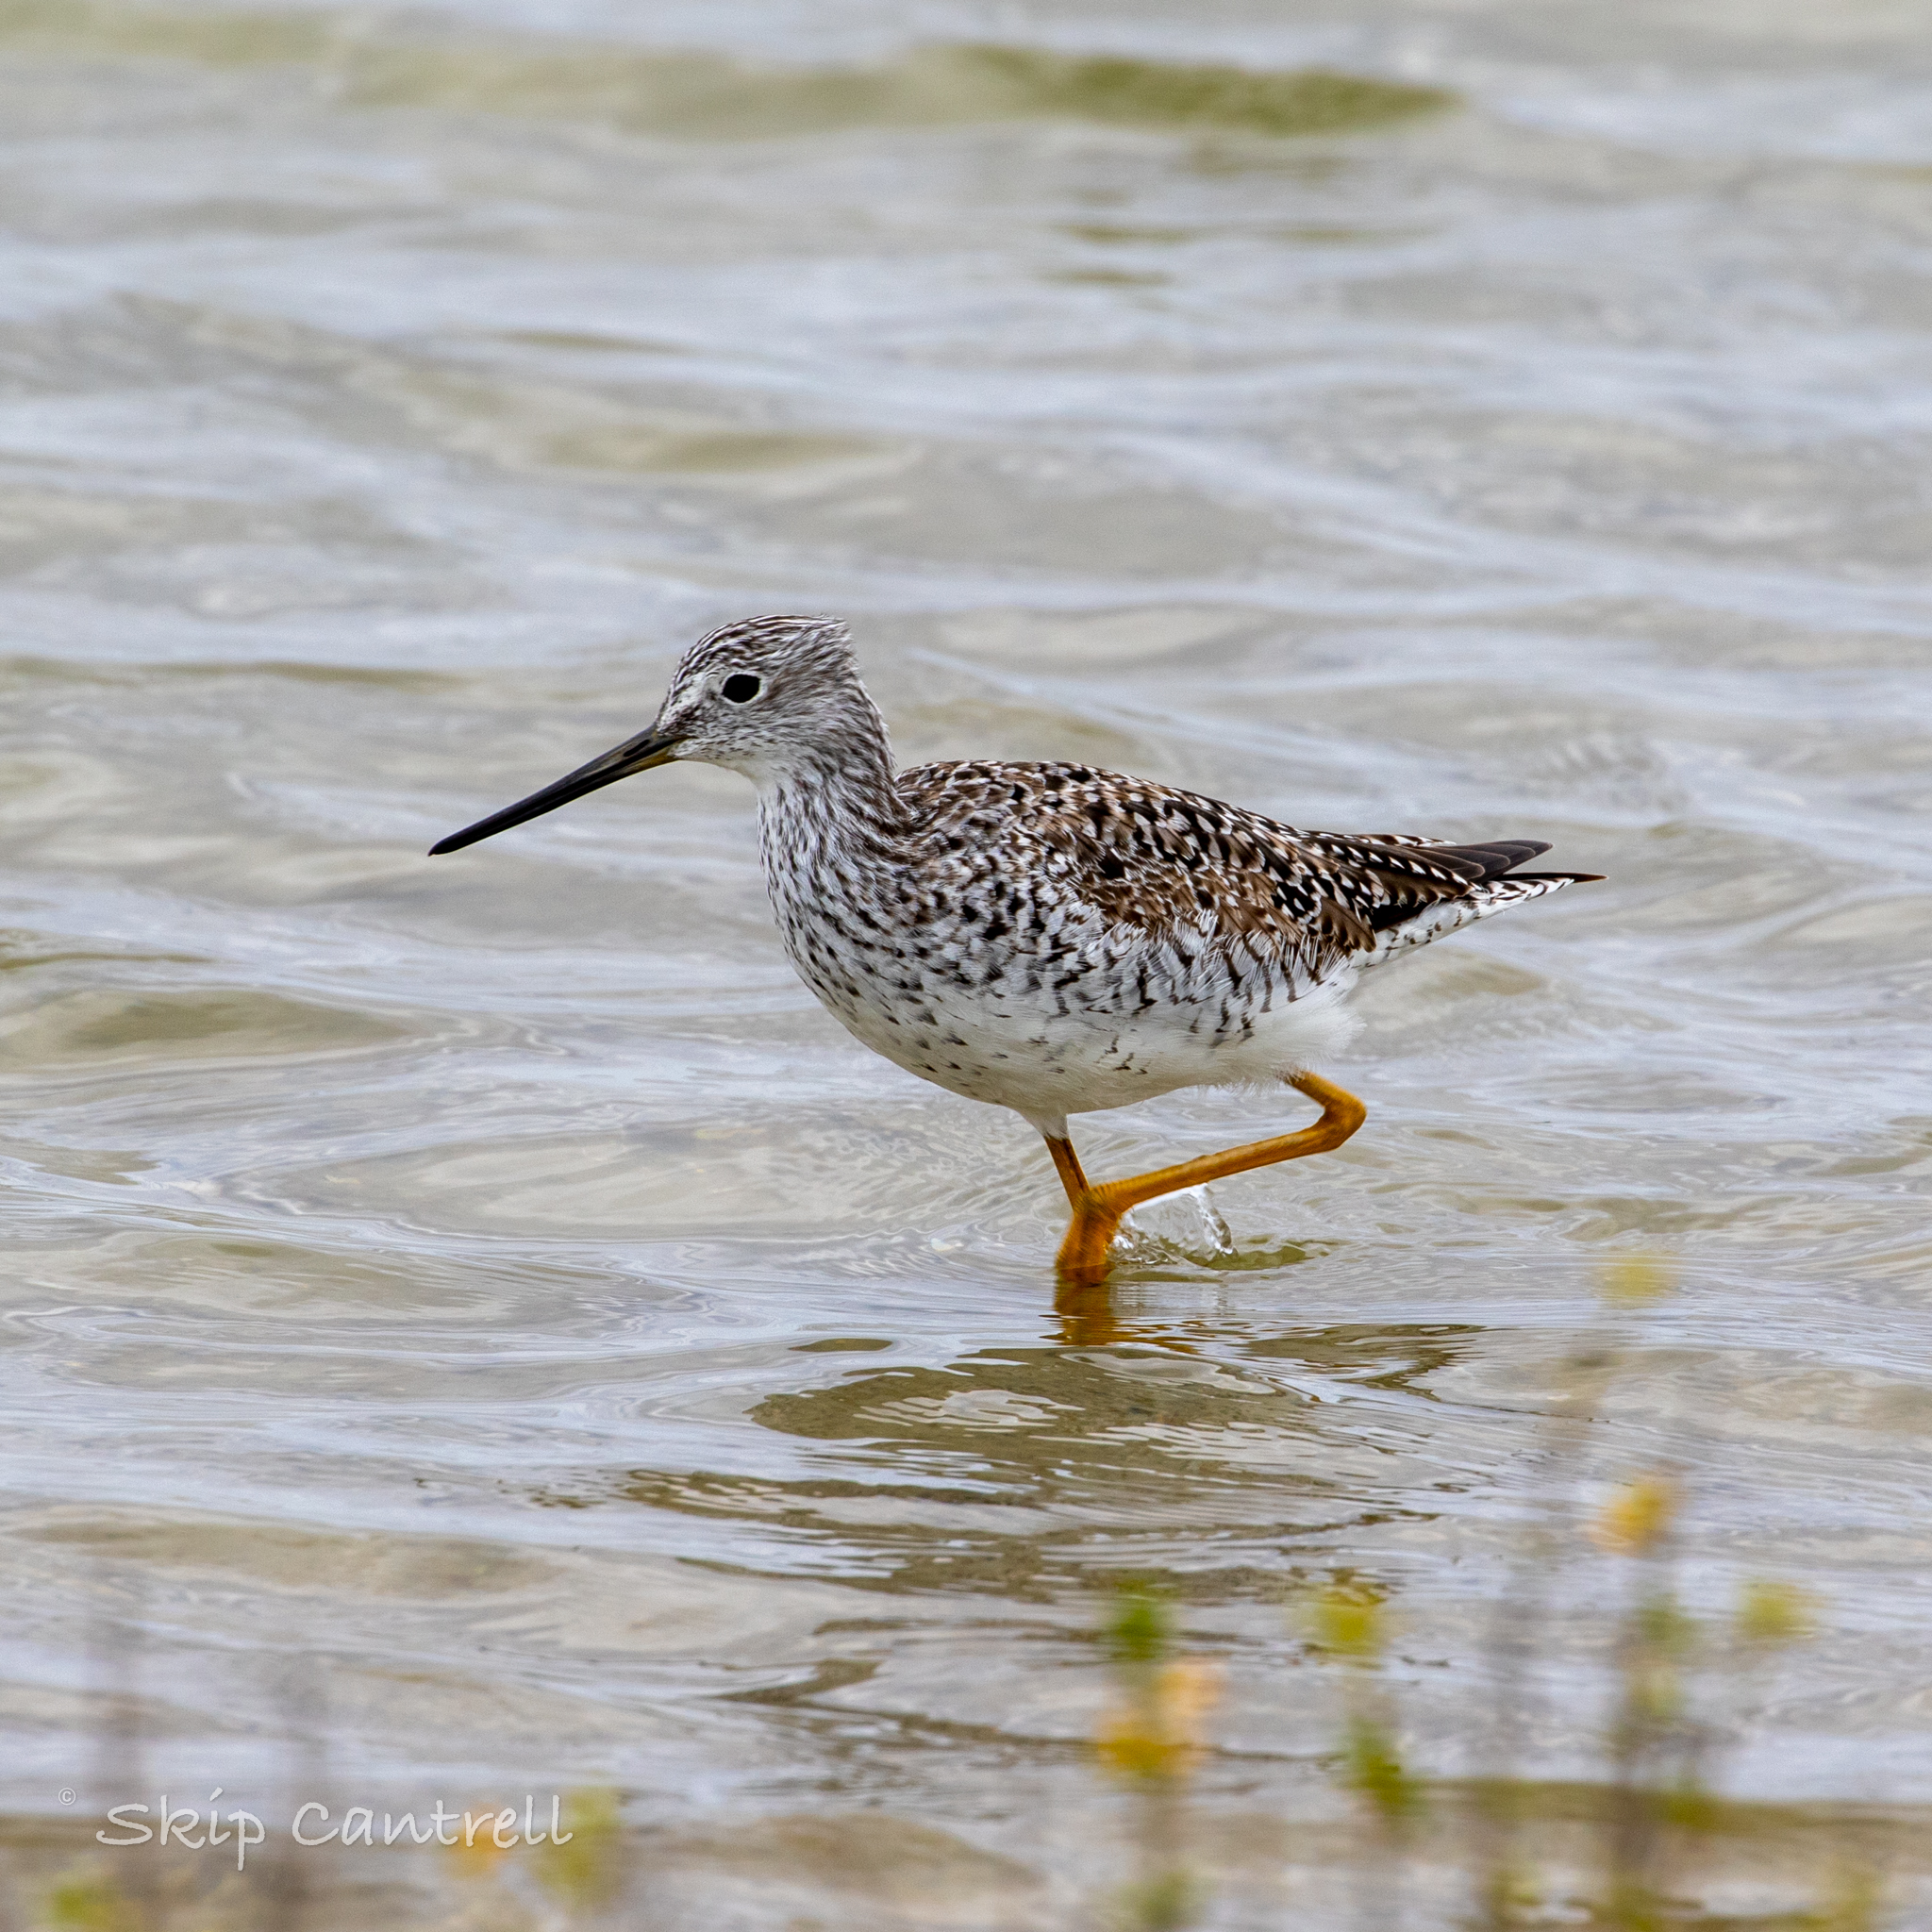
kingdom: Animalia
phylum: Chordata
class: Aves
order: Charadriiformes
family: Scolopacidae
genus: Tringa
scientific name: Tringa melanoleuca
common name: Greater yellowlegs
